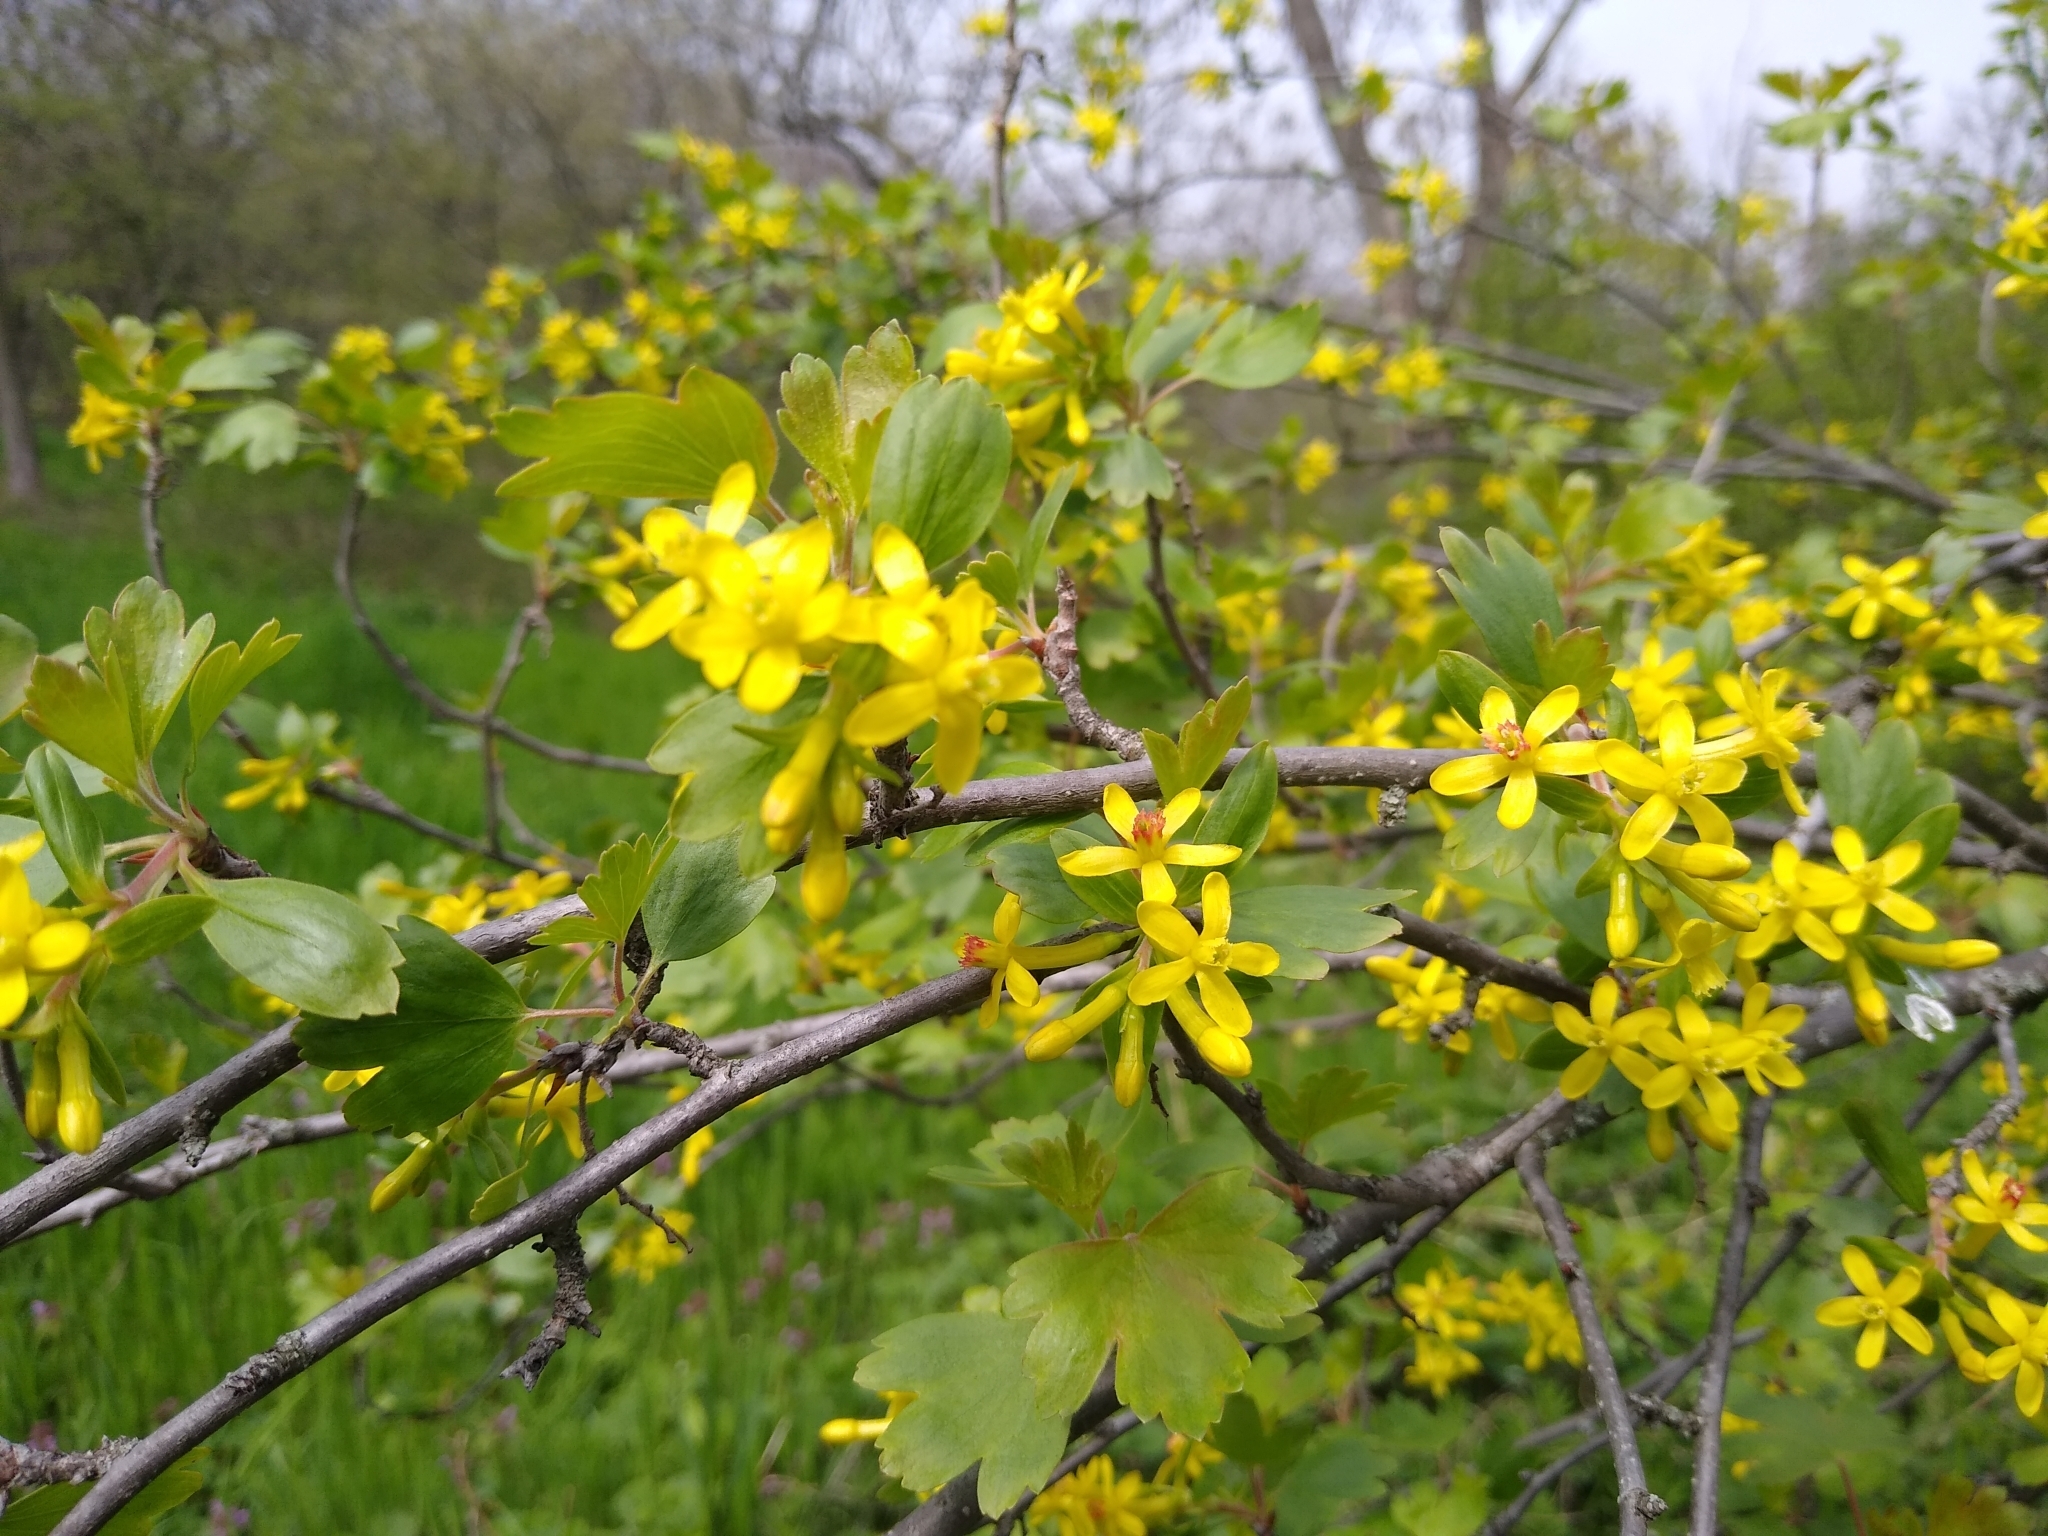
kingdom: Plantae
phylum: Tracheophyta
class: Magnoliopsida
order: Saxifragales
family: Grossulariaceae
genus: Ribes
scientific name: Ribes aureum
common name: Golden currant
